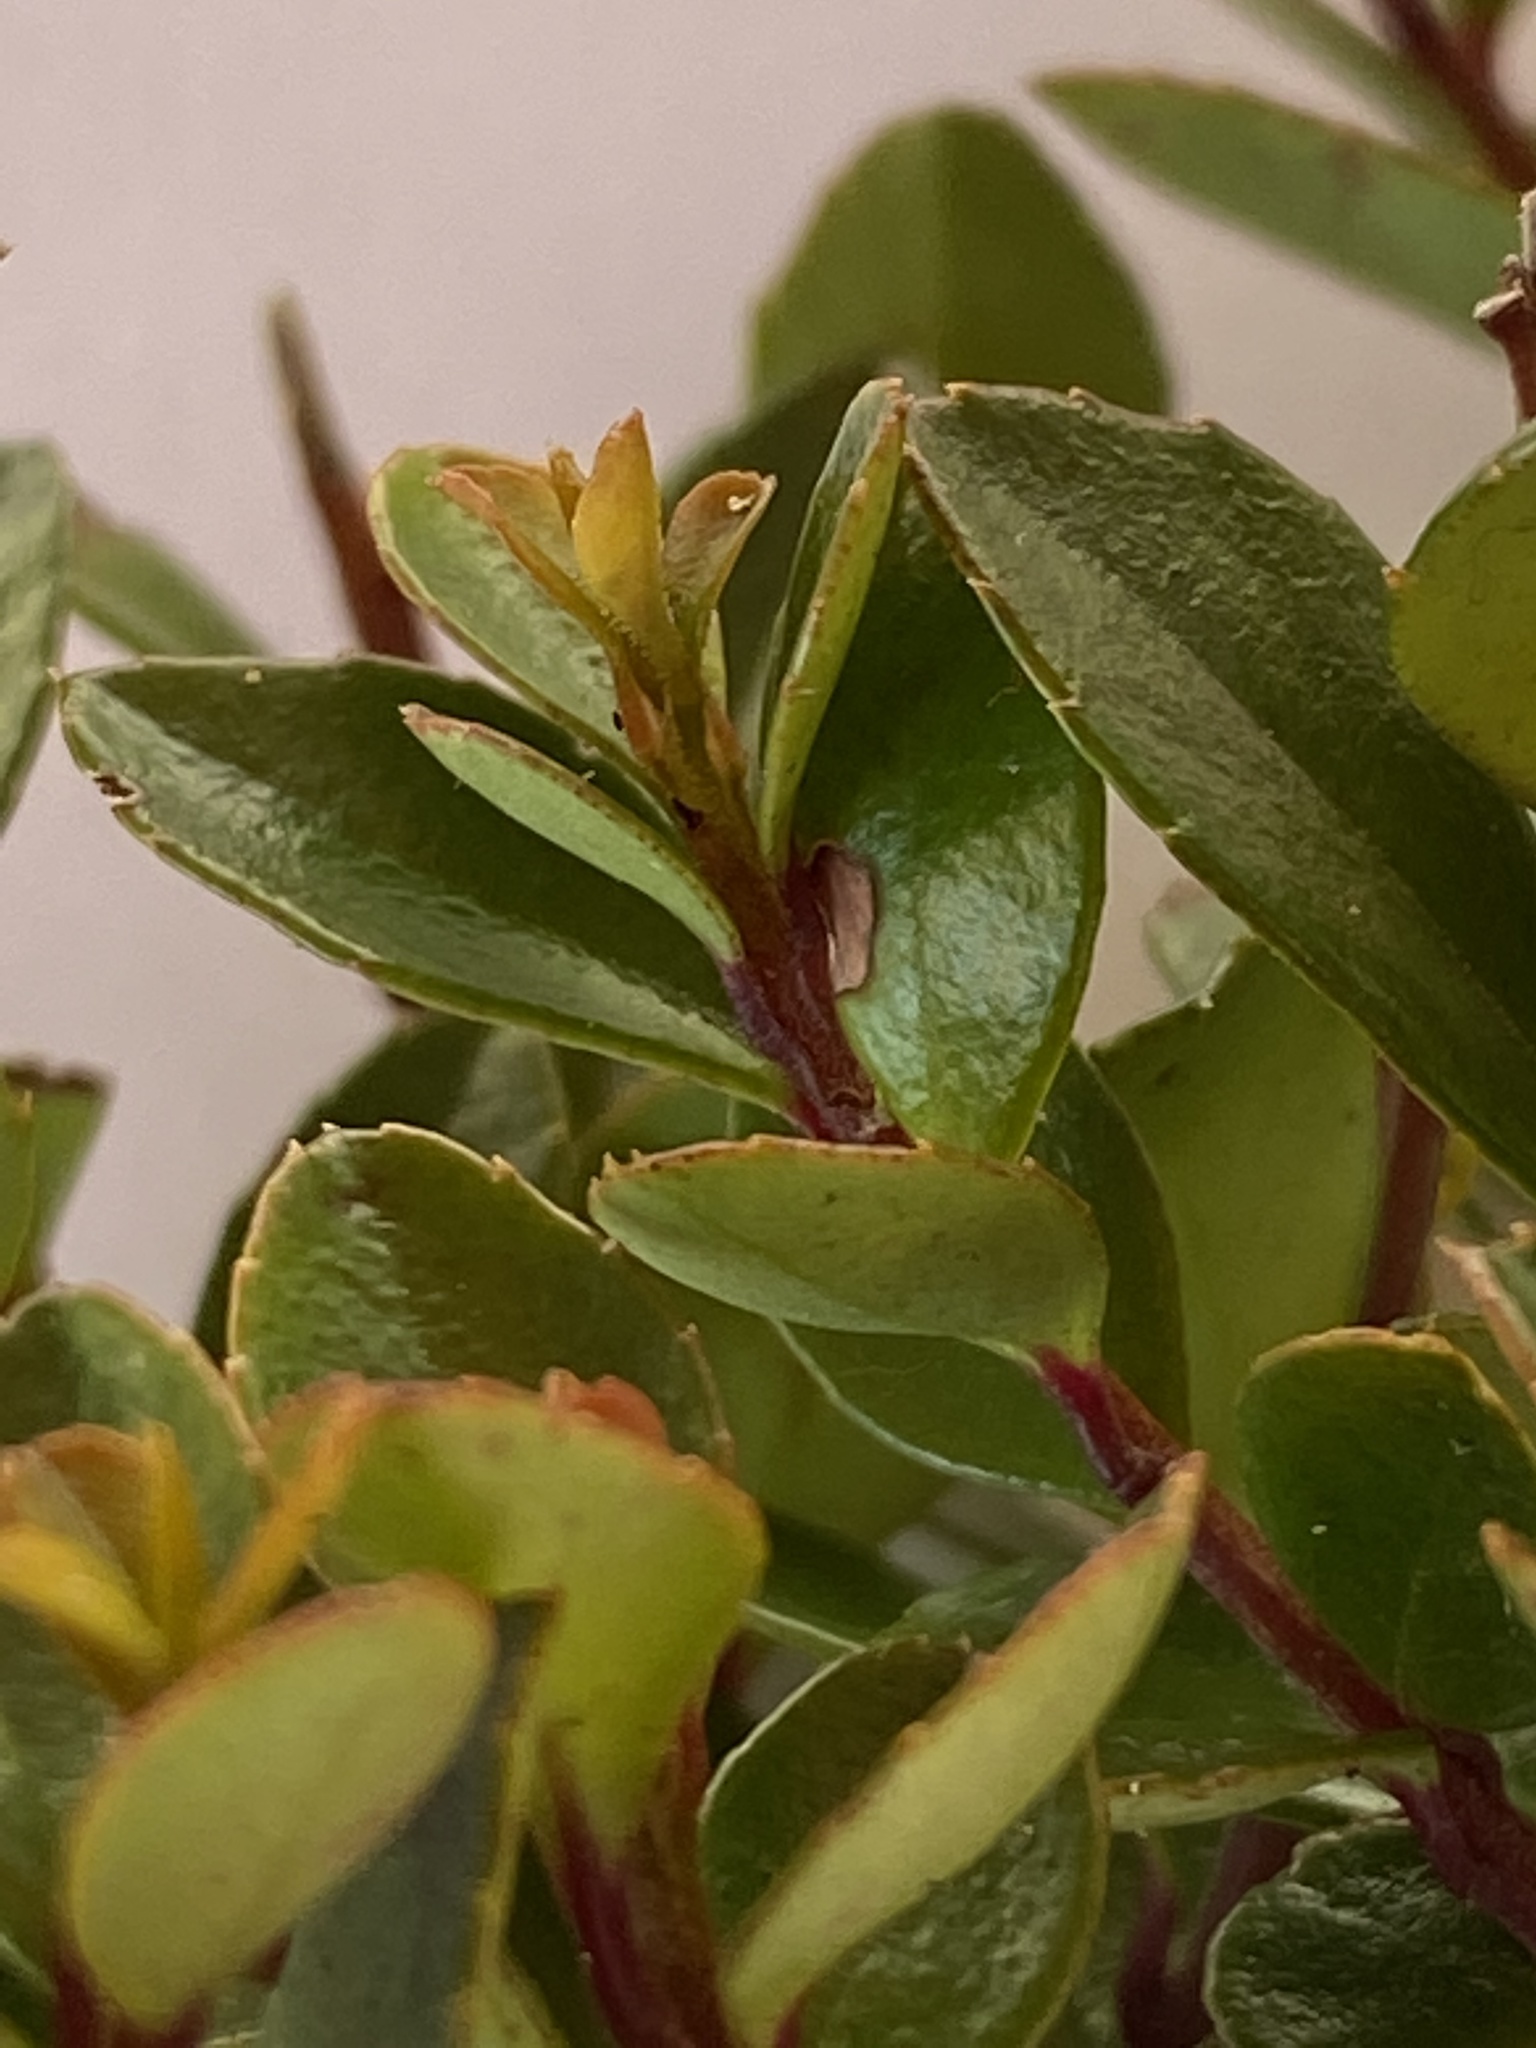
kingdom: Plantae
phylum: Tracheophyta
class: Magnoliopsida
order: Ericales
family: Primulaceae
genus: Myrsine
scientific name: Myrsine africana
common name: African-boxwood
